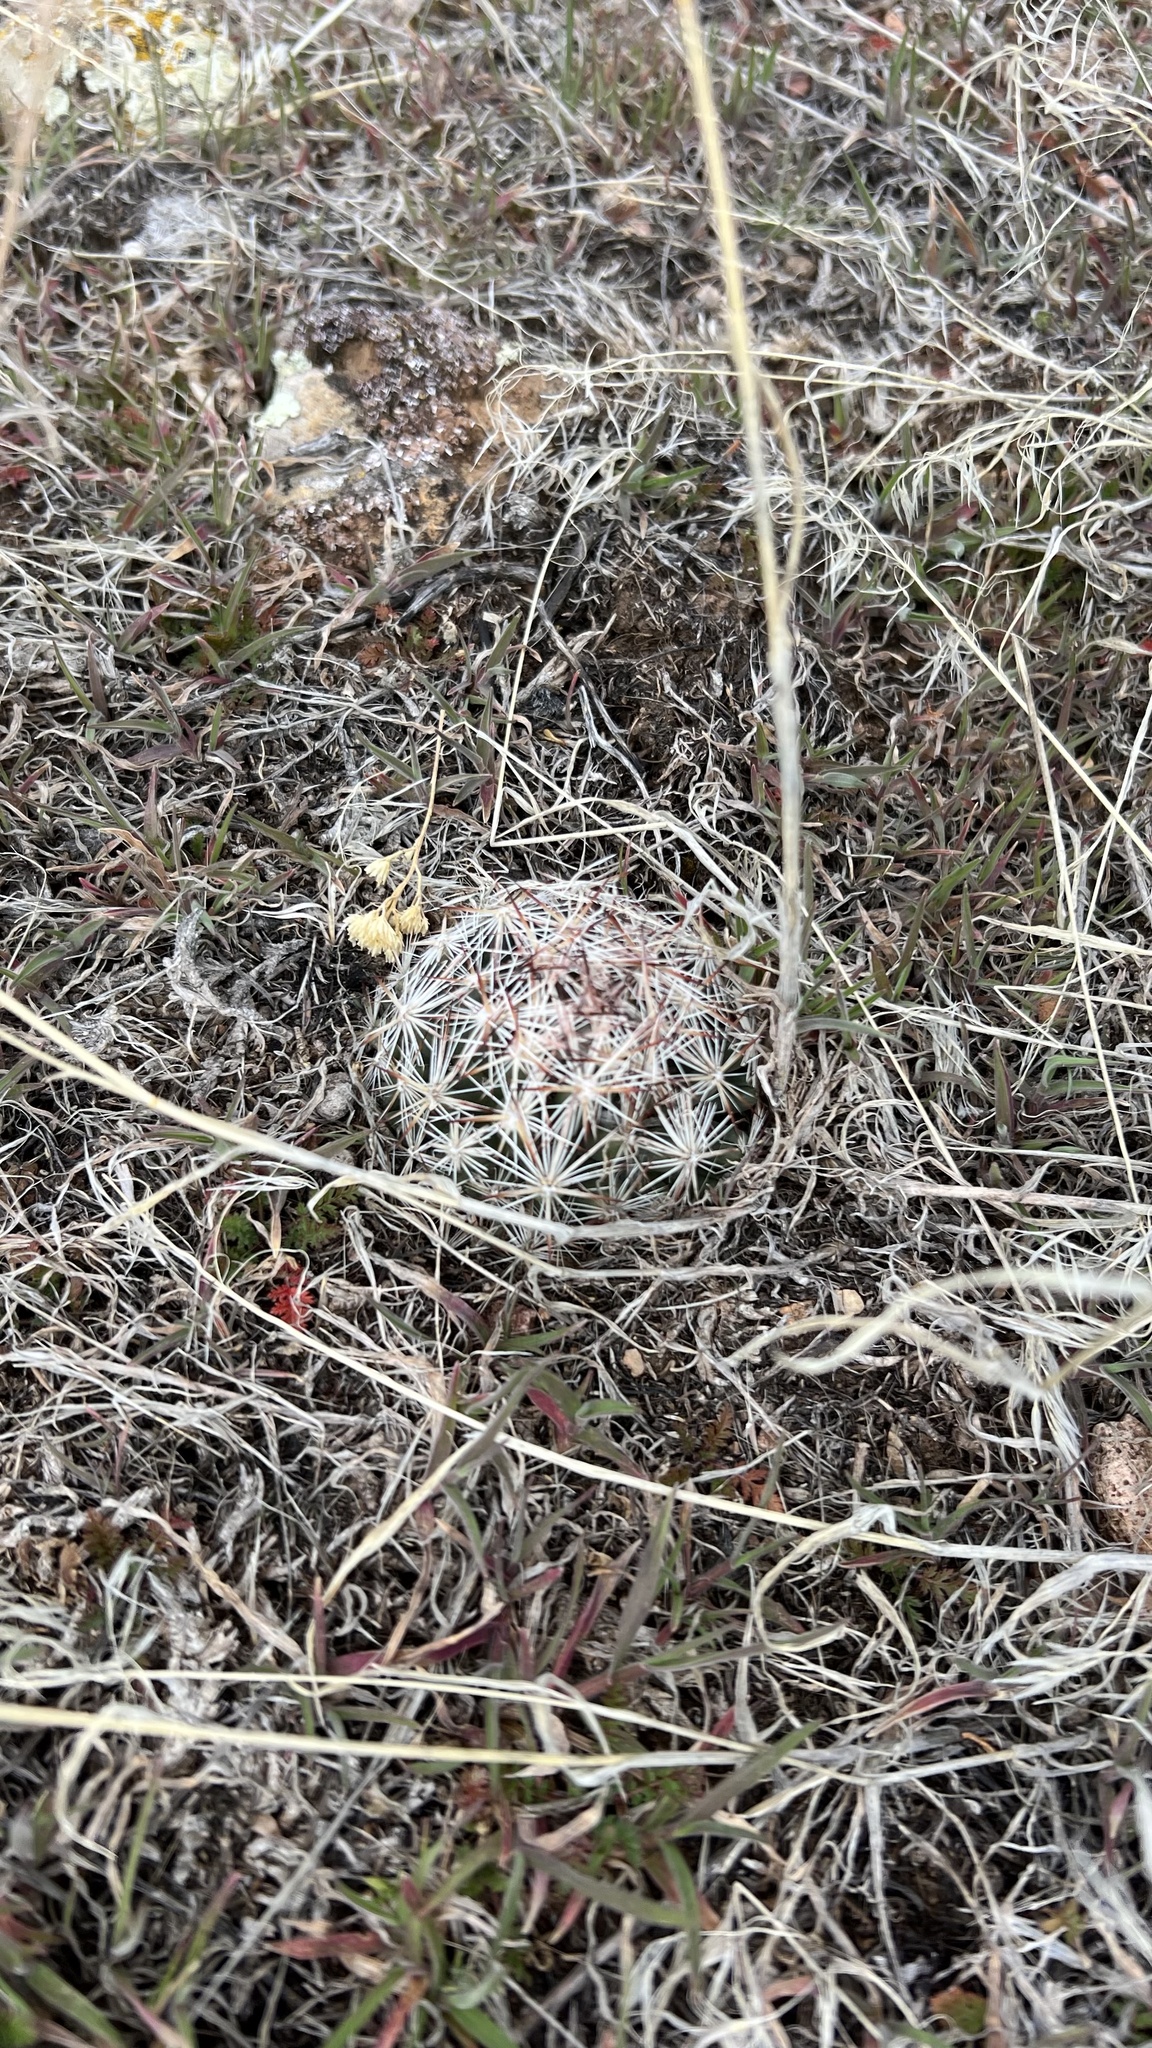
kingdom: Plantae
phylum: Tracheophyta
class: Magnoliopsida
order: Caryophyllales
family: Cactaceae
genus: Pelecyphora
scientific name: Pelecyphora vivipara
